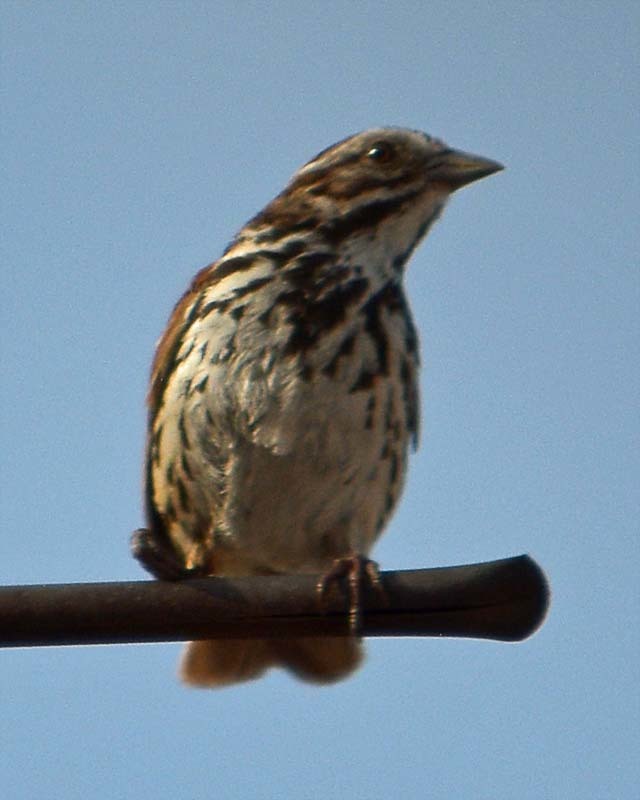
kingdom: Animalia
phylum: Chordata
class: Aves
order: Passeriformes
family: Passerellidae
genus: Melospiza
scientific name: Melospiza melodia
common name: Song sparrow
